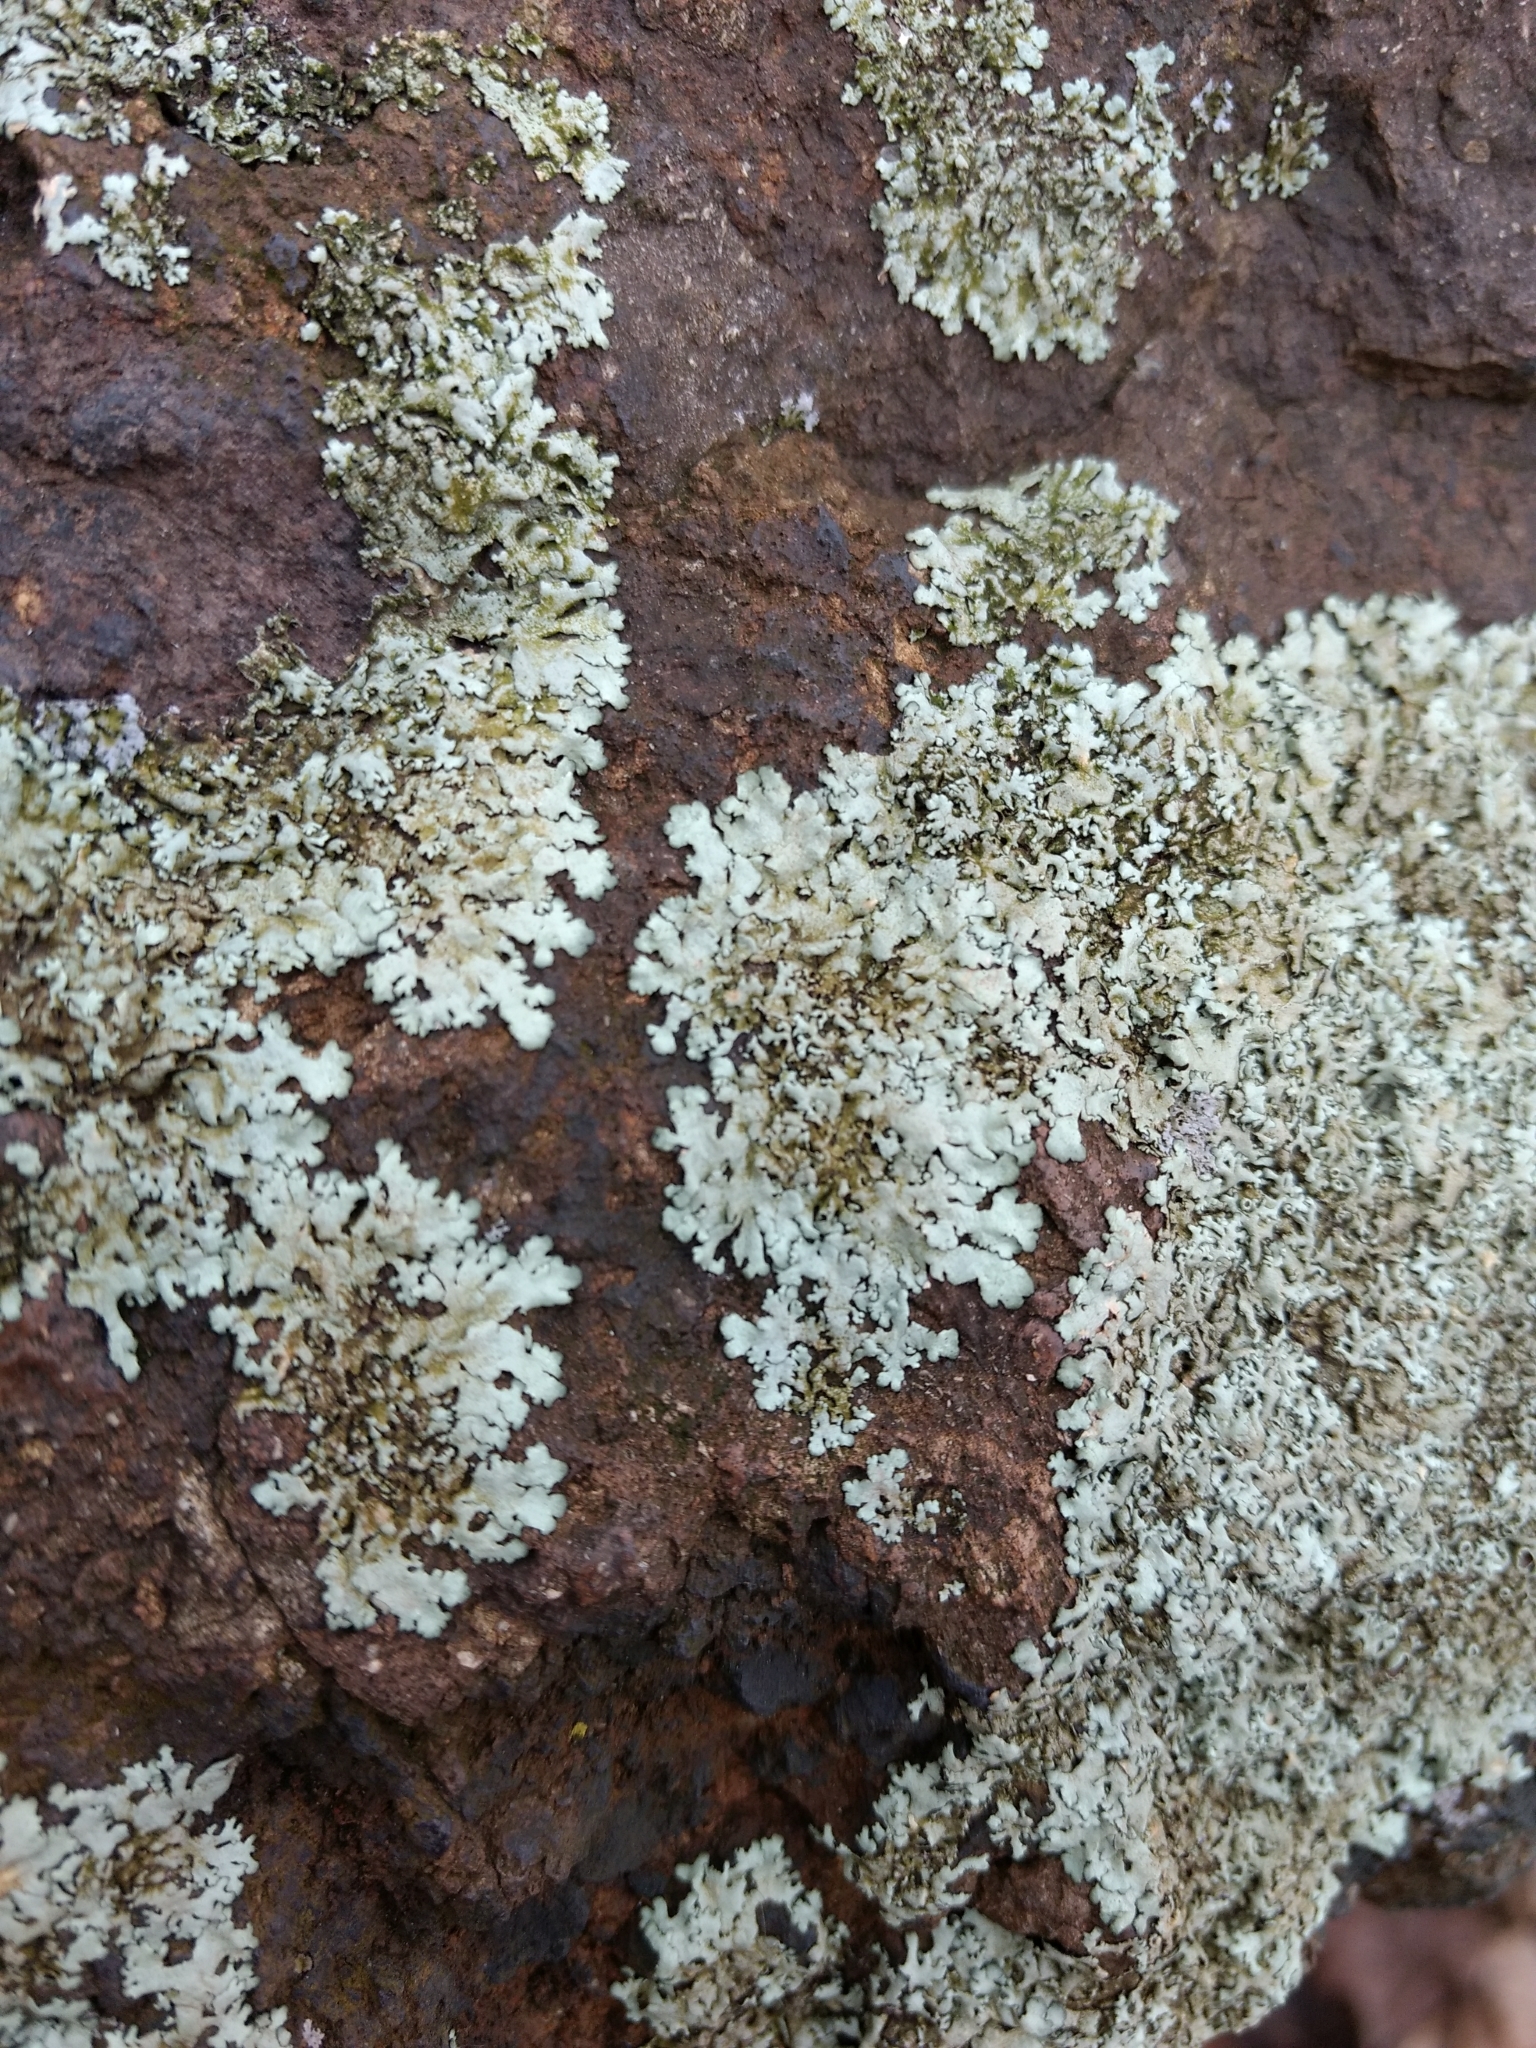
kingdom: Fungi
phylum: Ascomycota
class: Lecanoromycetes
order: Lecanorales
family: Parmeliaceae
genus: Flavoparmelia
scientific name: Flavoparmelia baltimorensis
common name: Rock greenshield
